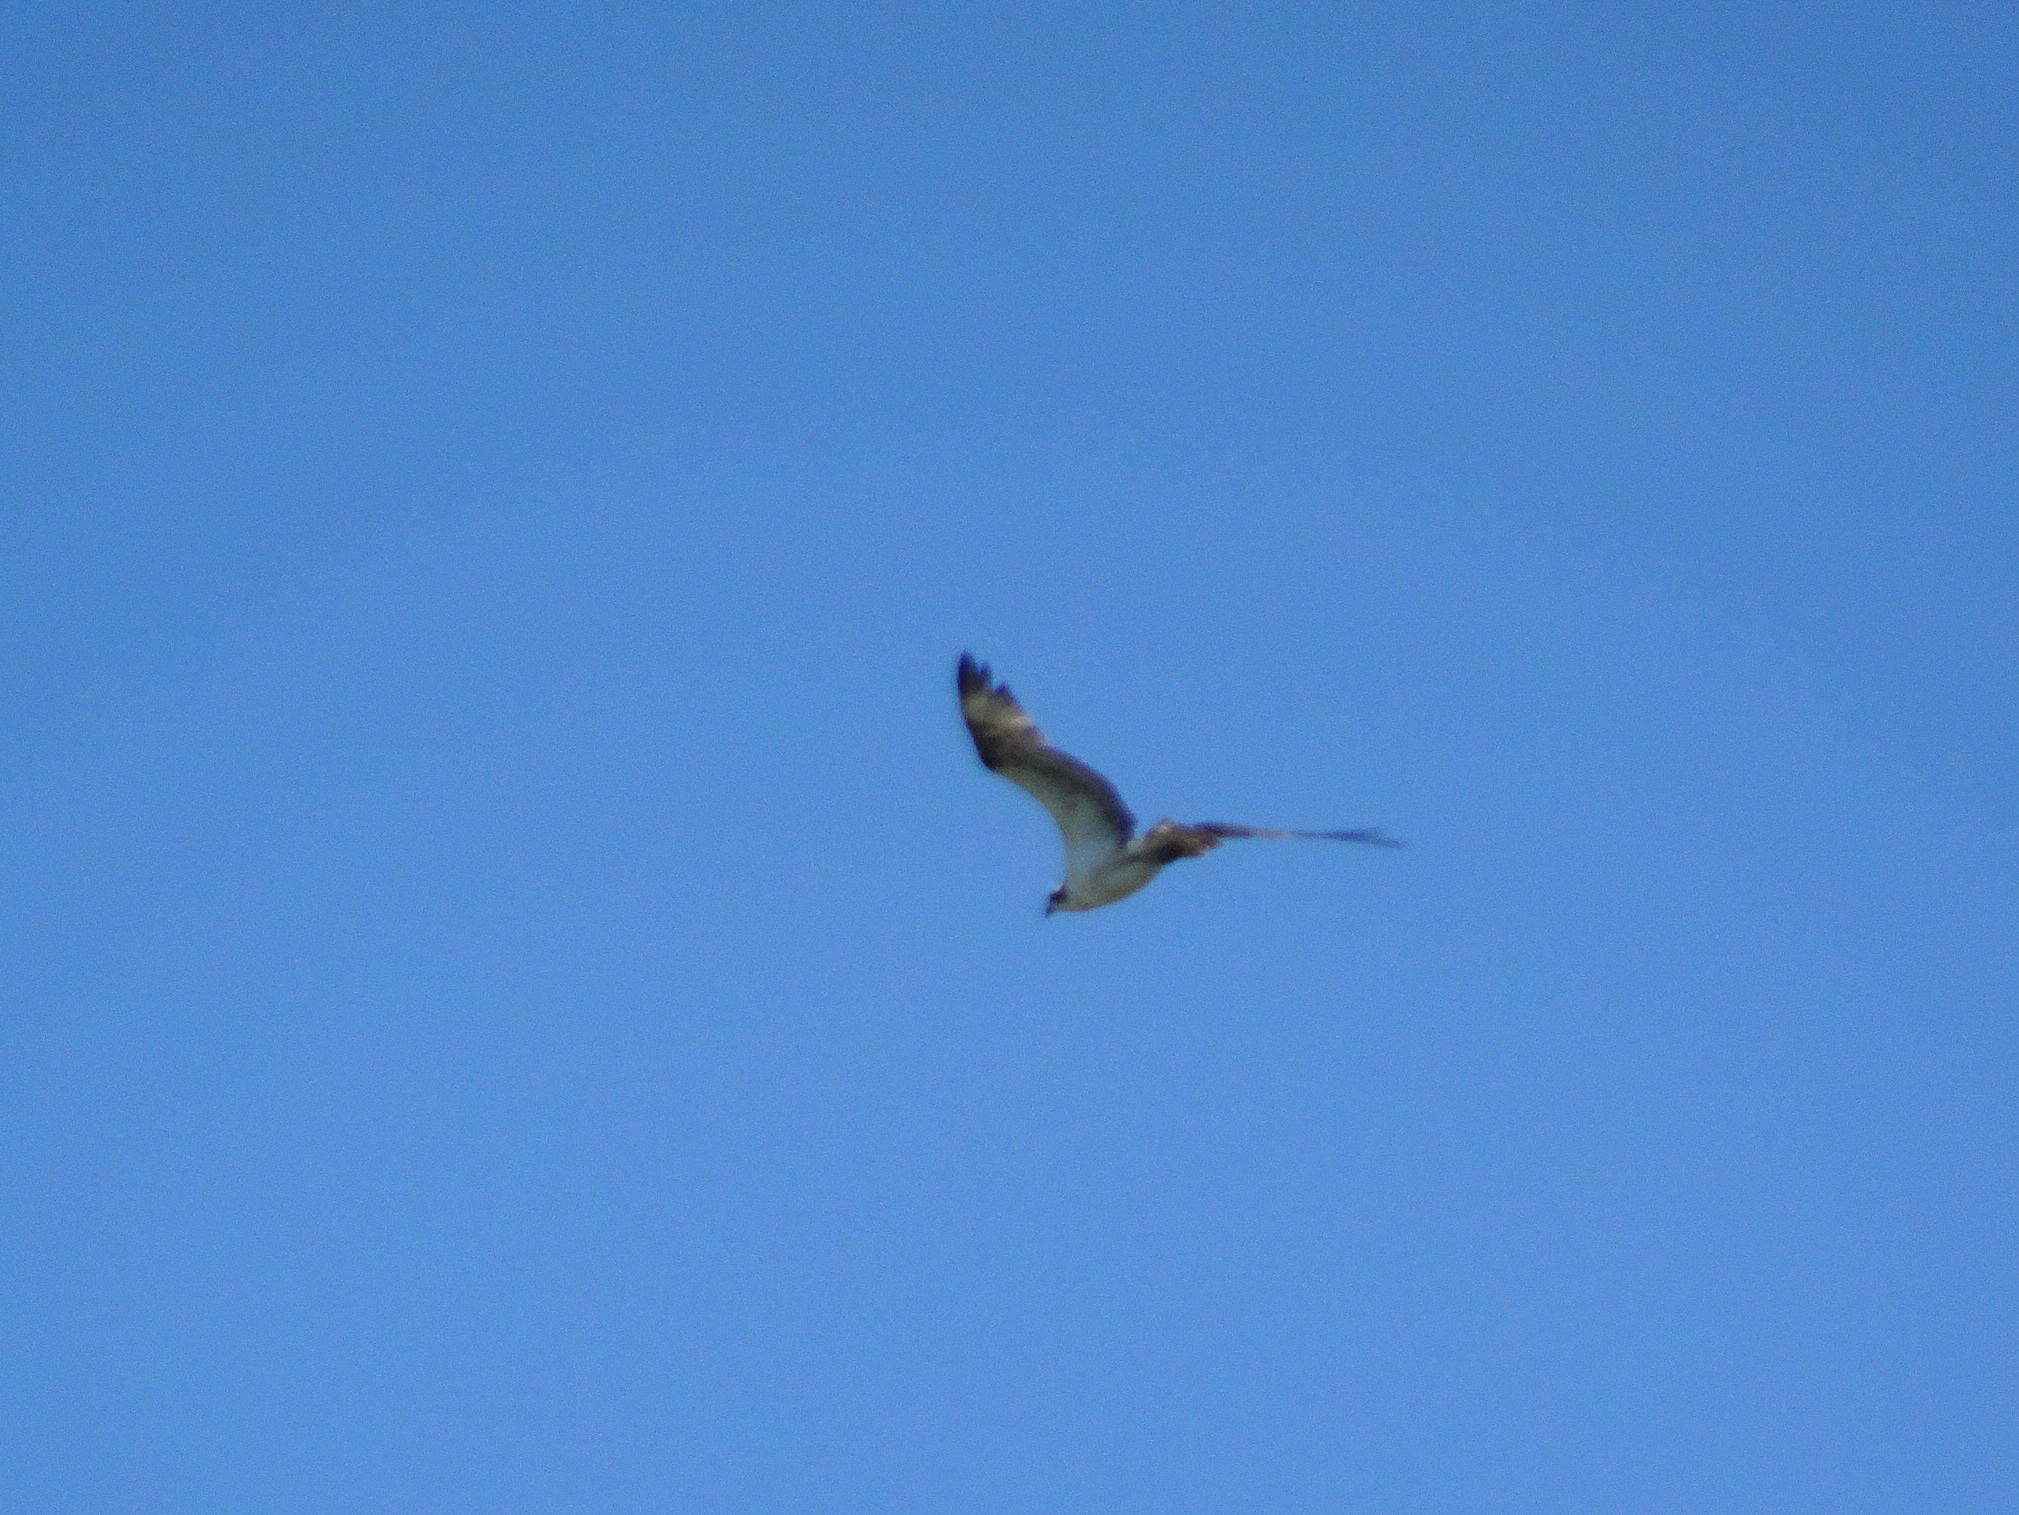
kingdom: Animalia
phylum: Chordata
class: Aves
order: Accipitriformes
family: Pandionidae
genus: Pandion
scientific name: Pandion haliaetus
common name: Osprey
